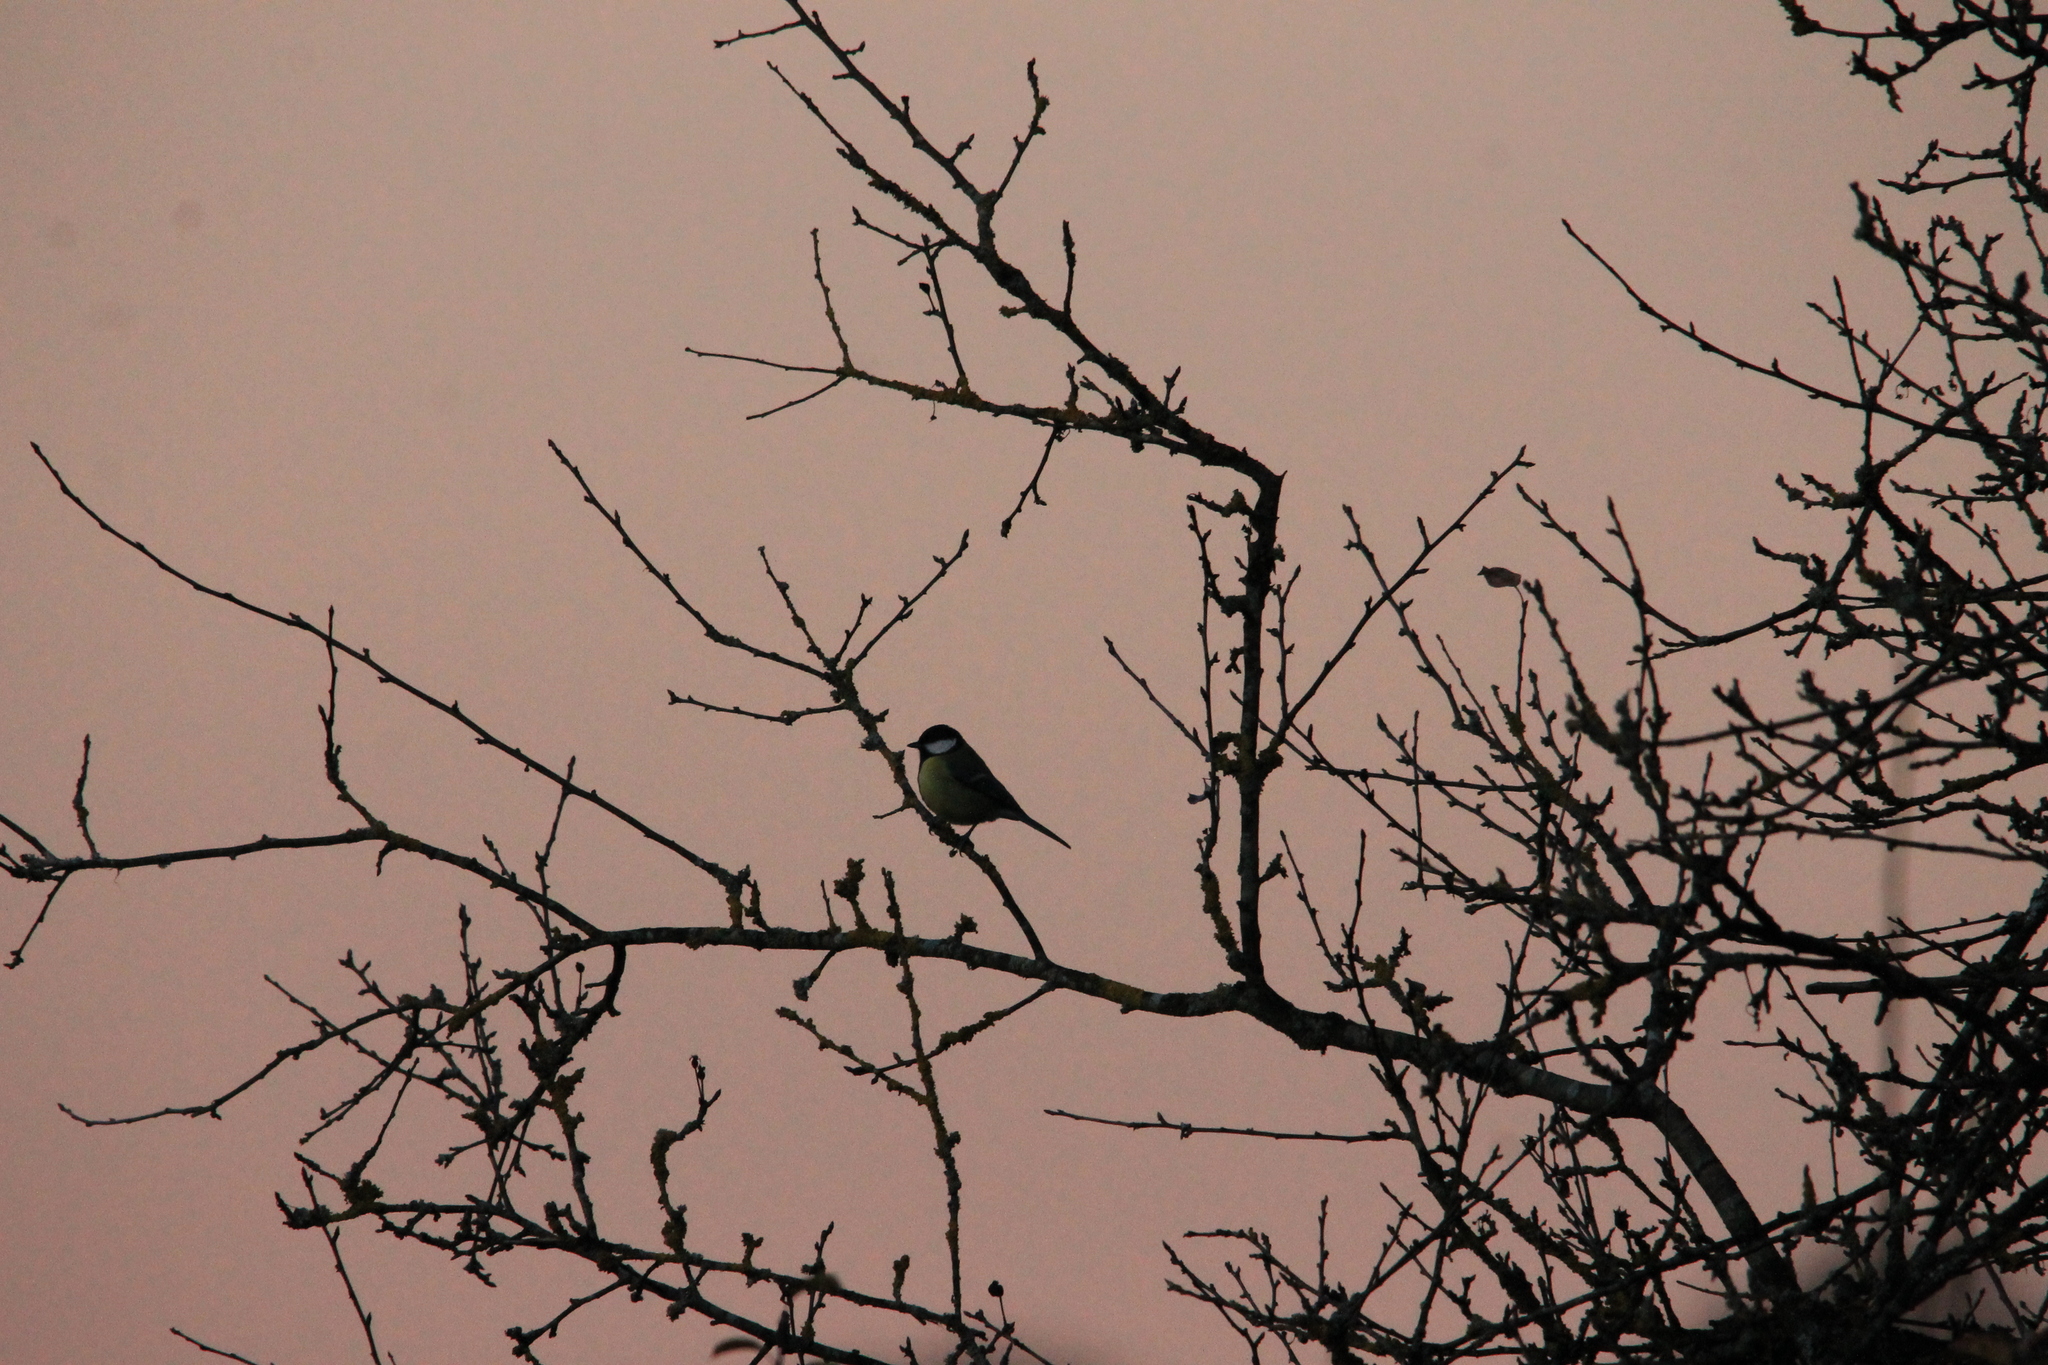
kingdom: Animalia
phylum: Chordata
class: Aves
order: Passeriformes
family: Paridae
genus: Parus
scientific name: Parus major
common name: Great tit
